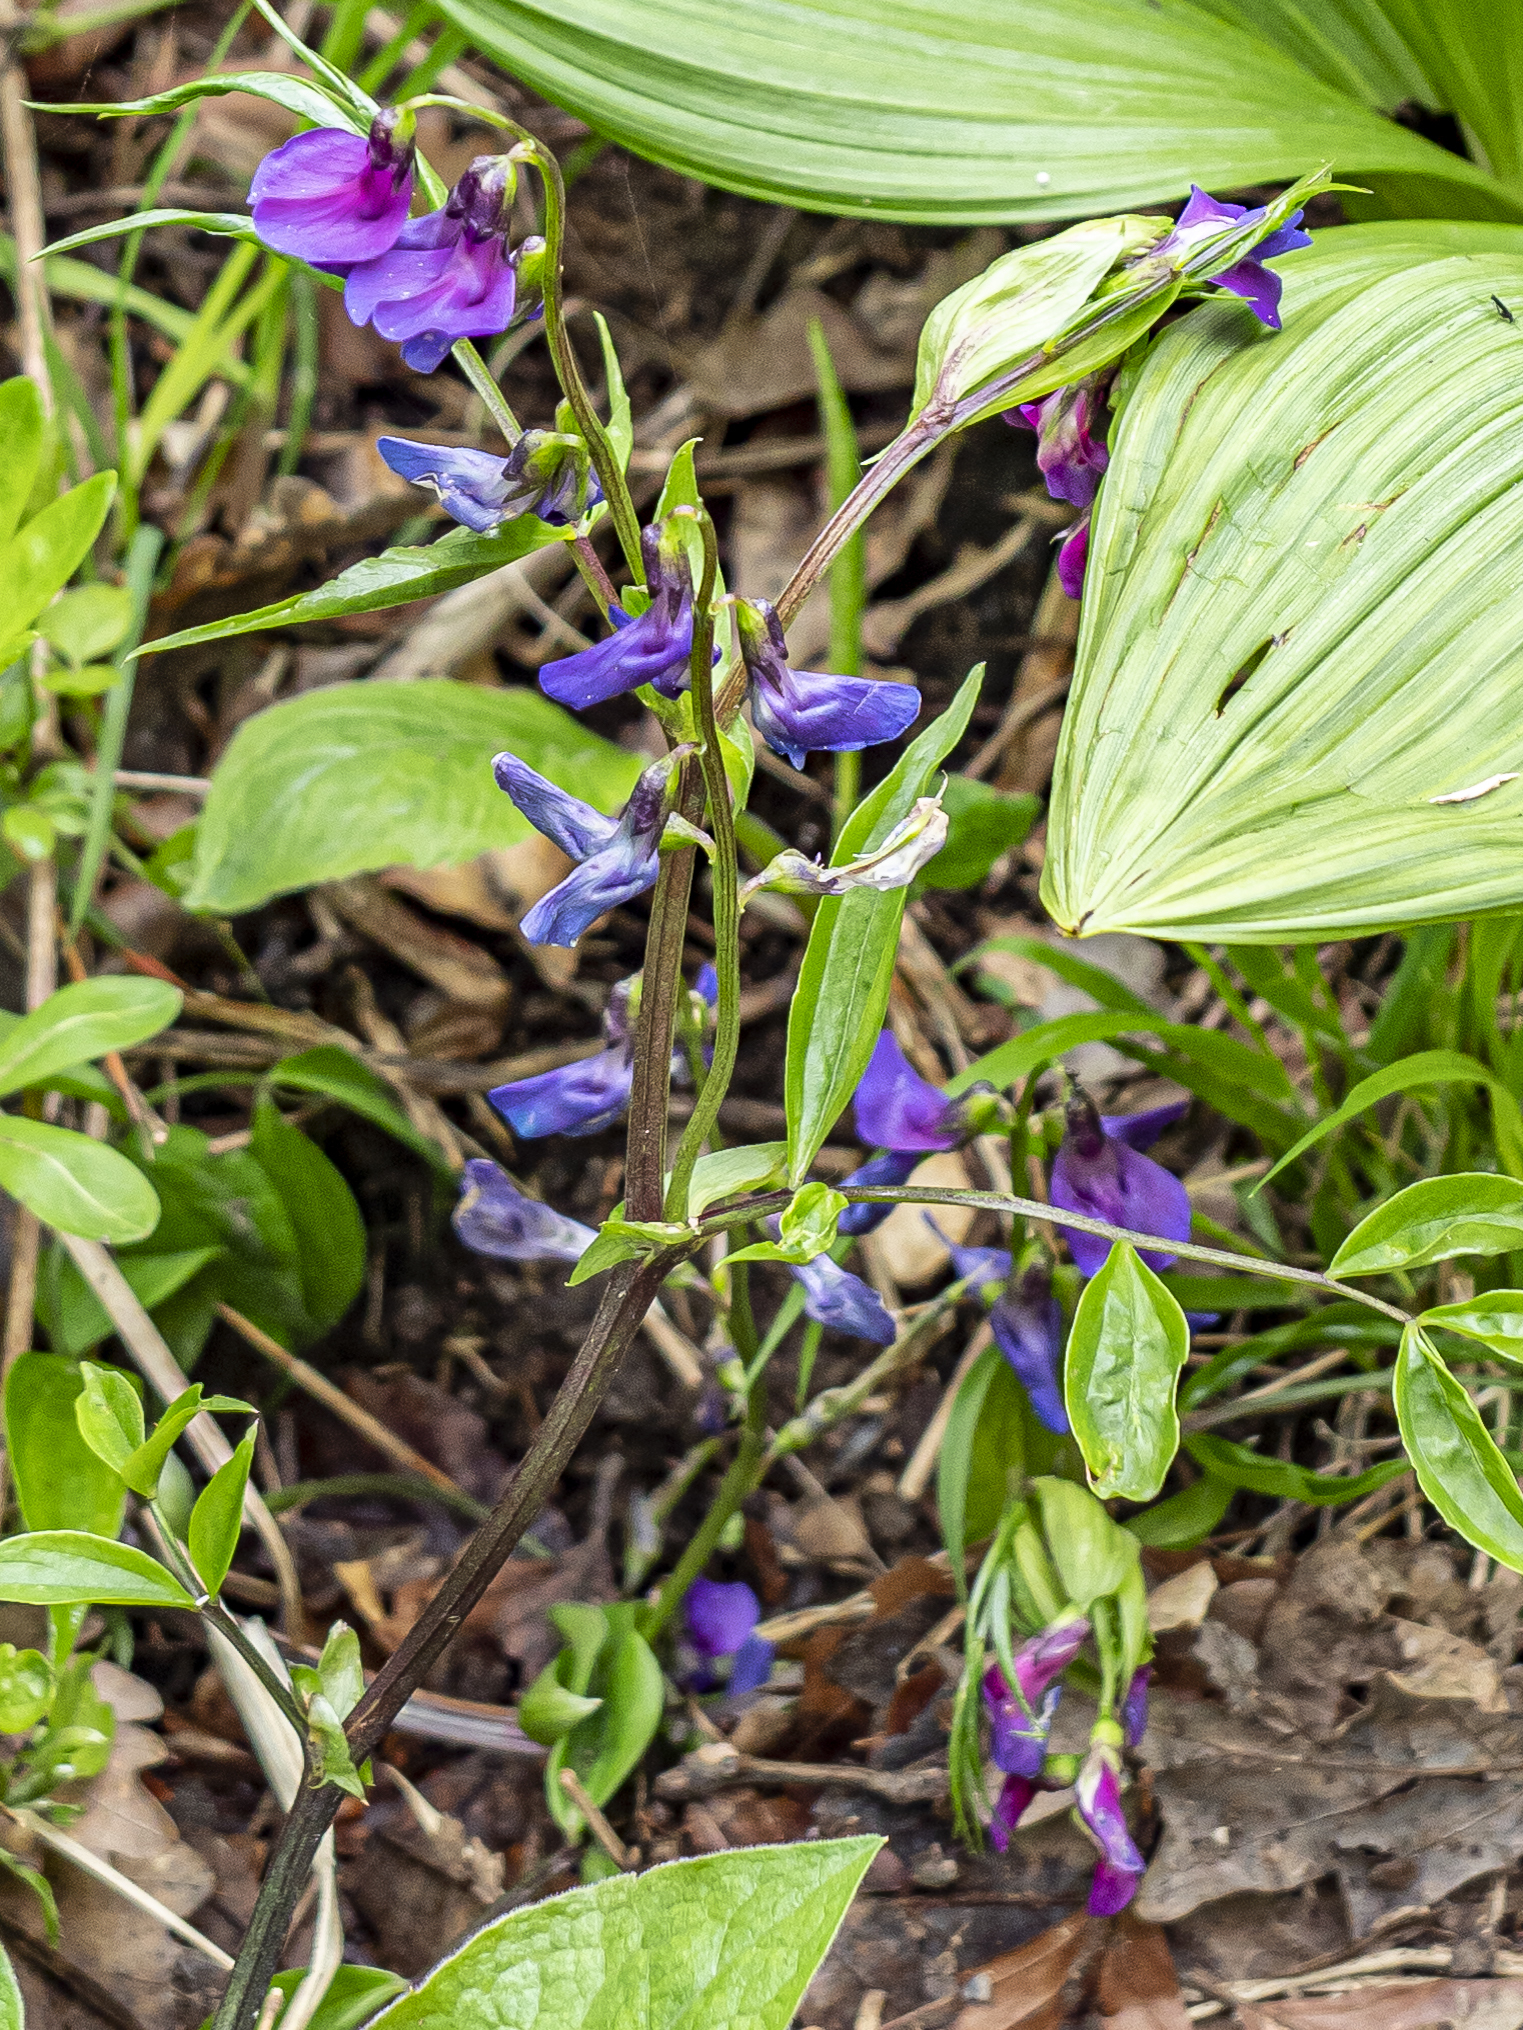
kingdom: Plantae
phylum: Tracheophyta
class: Magnoliopsida
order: Fabales
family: Fabaceae
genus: Lathyrus
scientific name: Lathyrus vernus
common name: Spring pea
